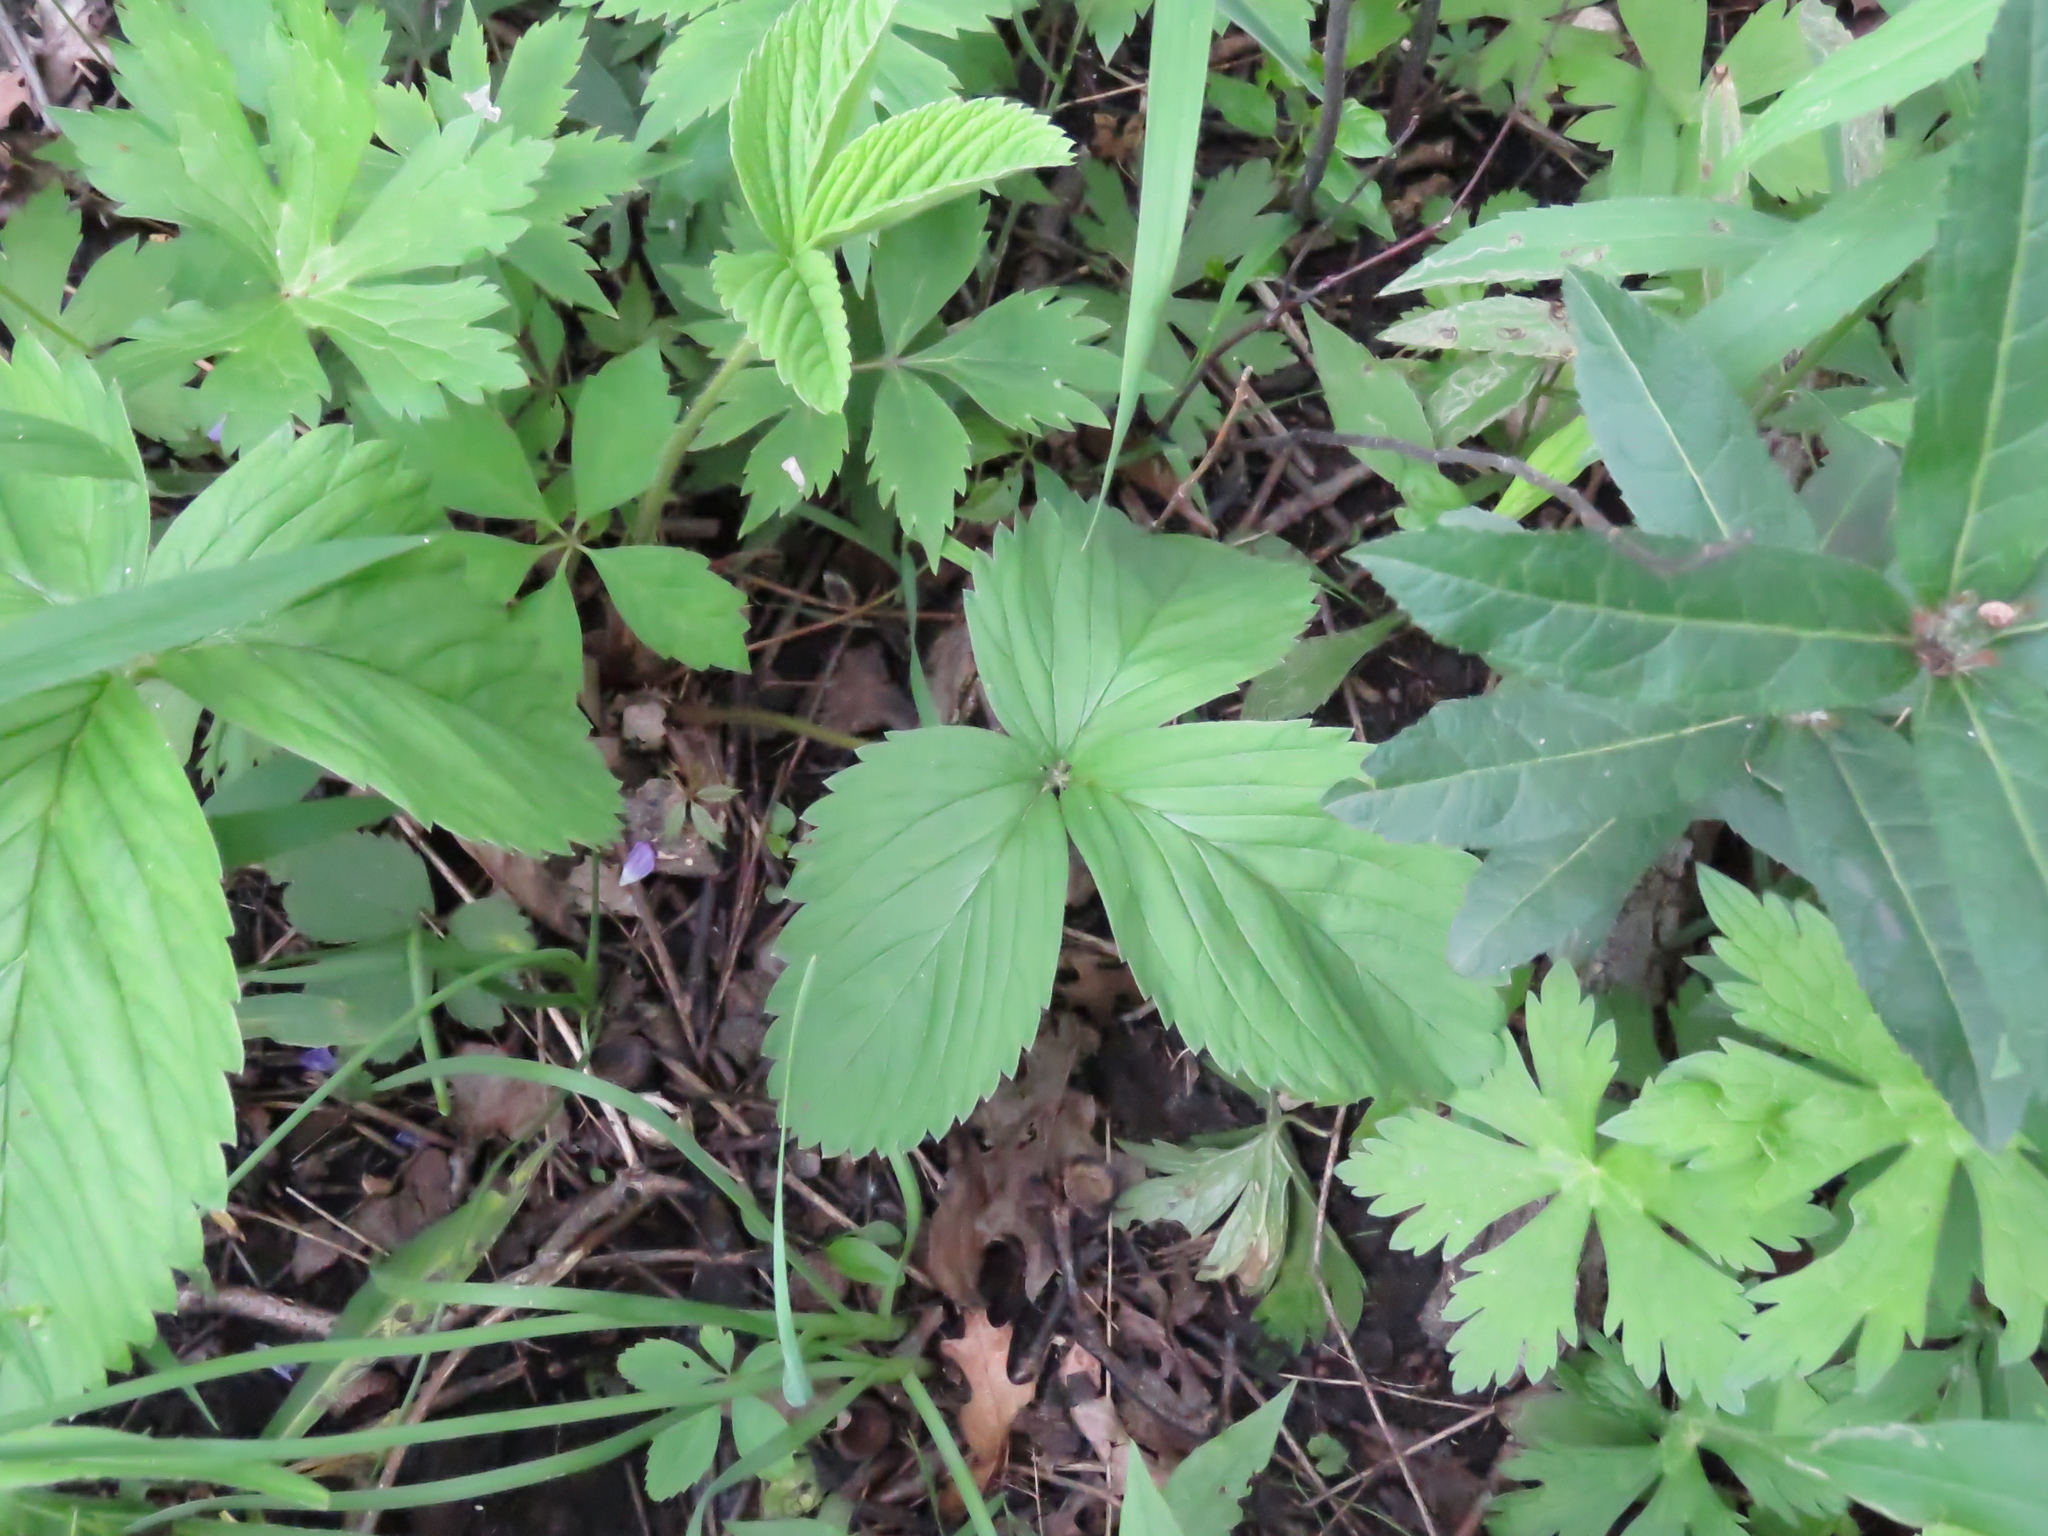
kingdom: Plantae
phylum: Tracheophyta
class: Magnoliopsida
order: Rosales
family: Rosaceae
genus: Fragaria
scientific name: Fragaria virginiana
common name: Thickleaved wild strawberry
